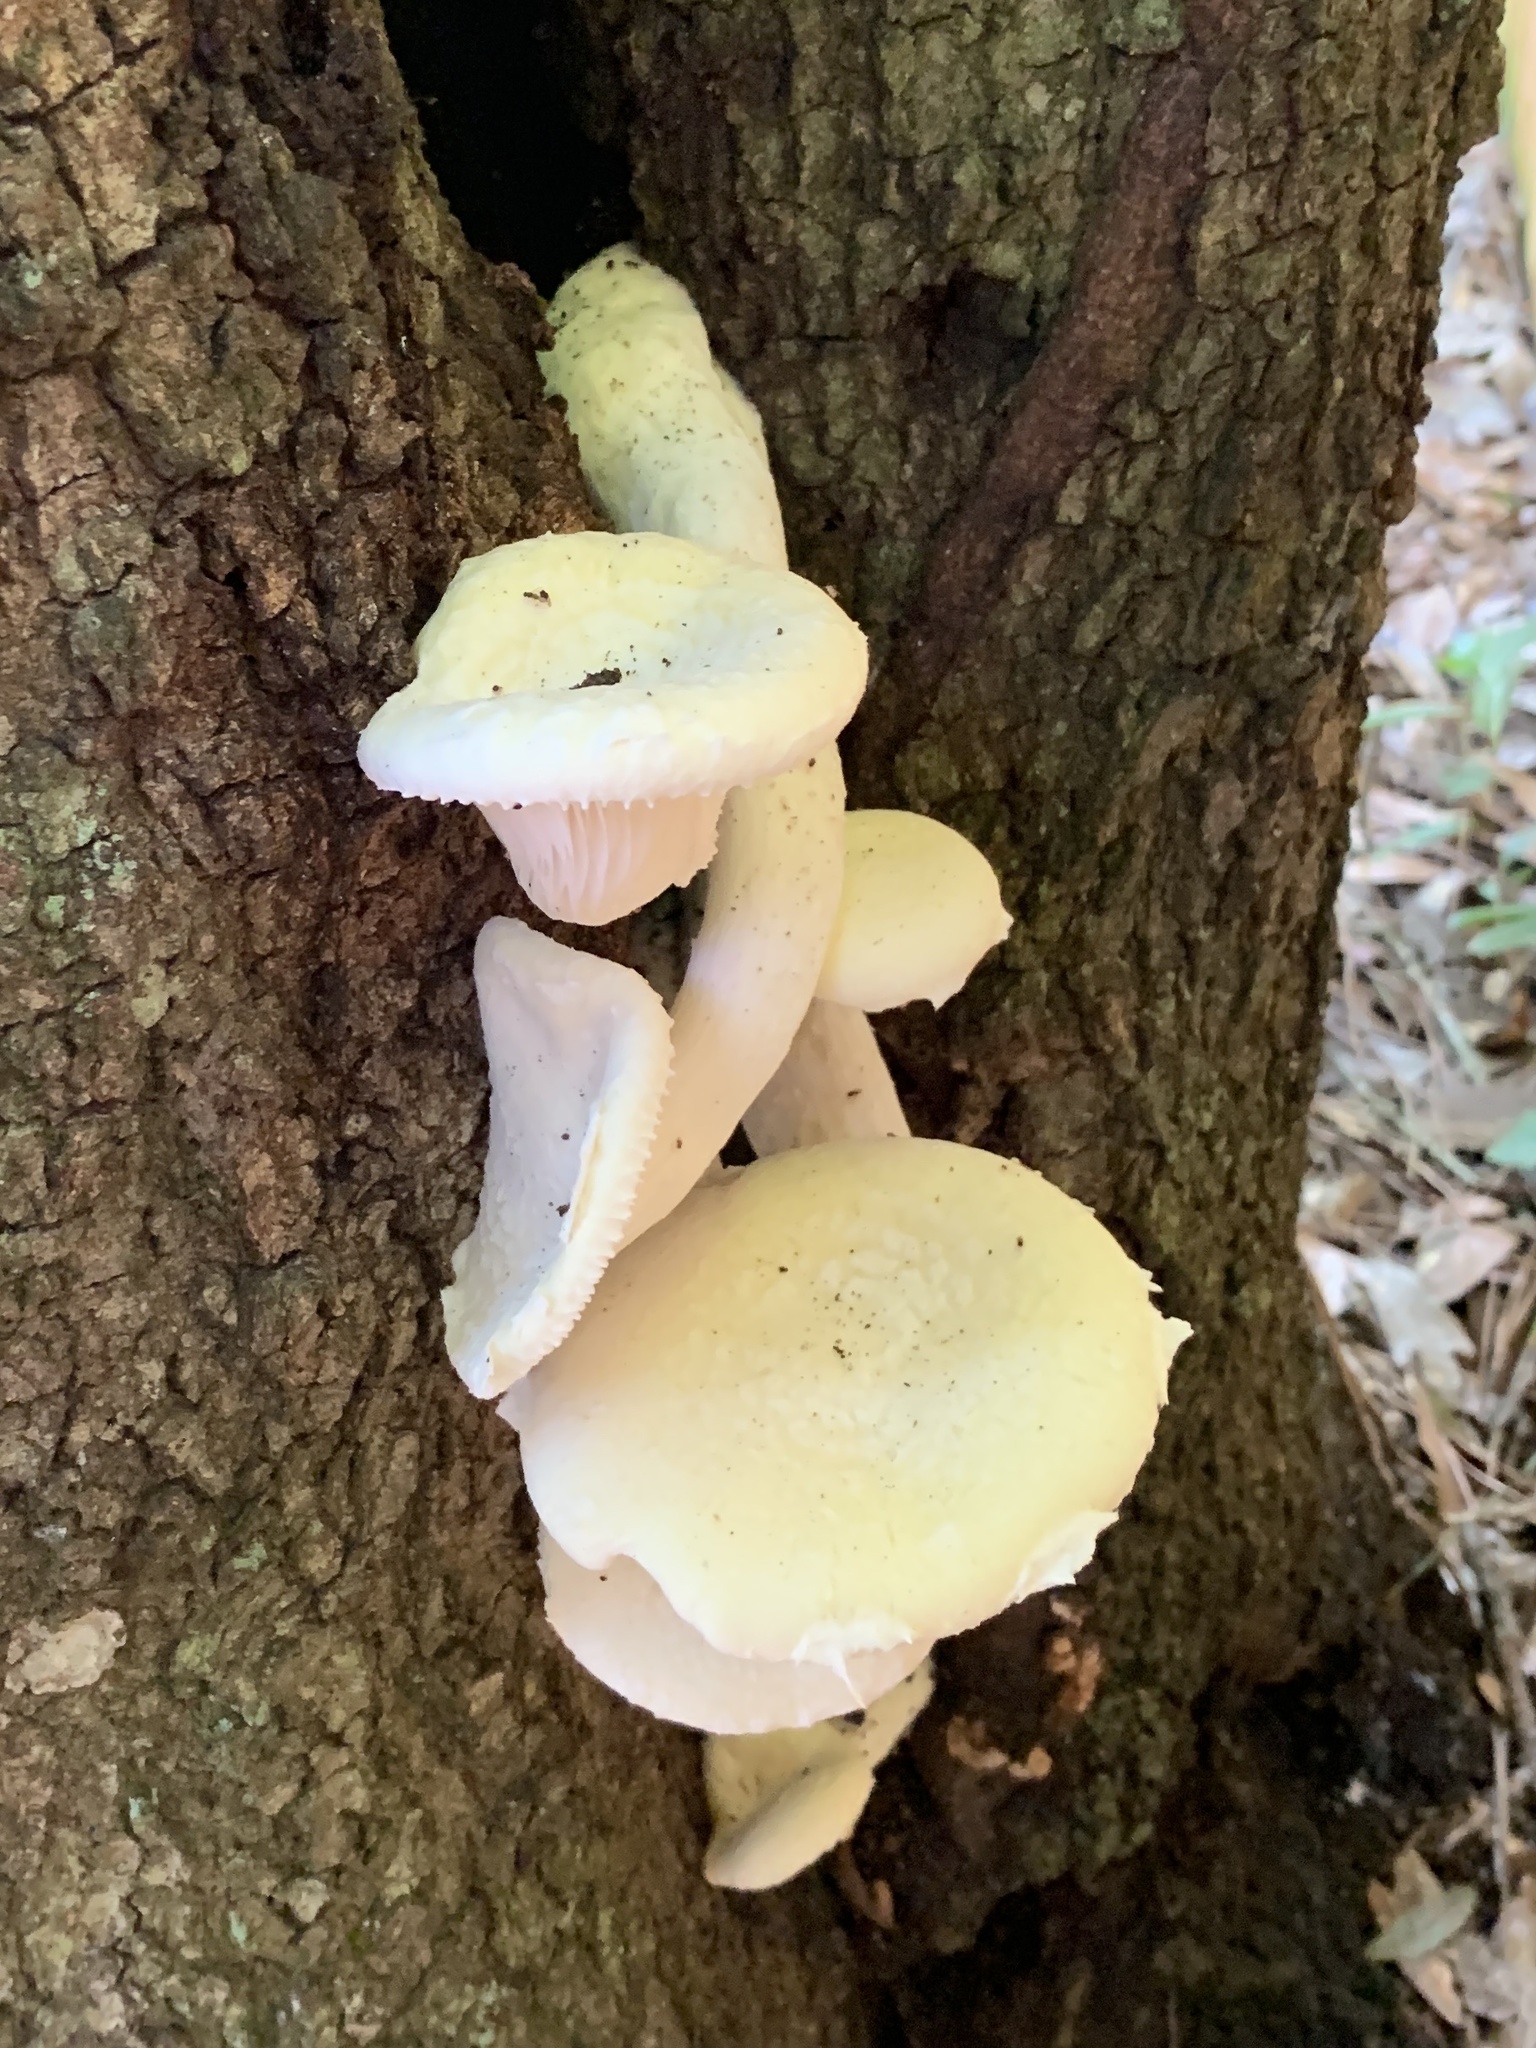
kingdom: Fungi
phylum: Basidiomycota
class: Agaricomycetes
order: Polyporales
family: Polyporaceae
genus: Lentinus
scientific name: Lentinus levis
